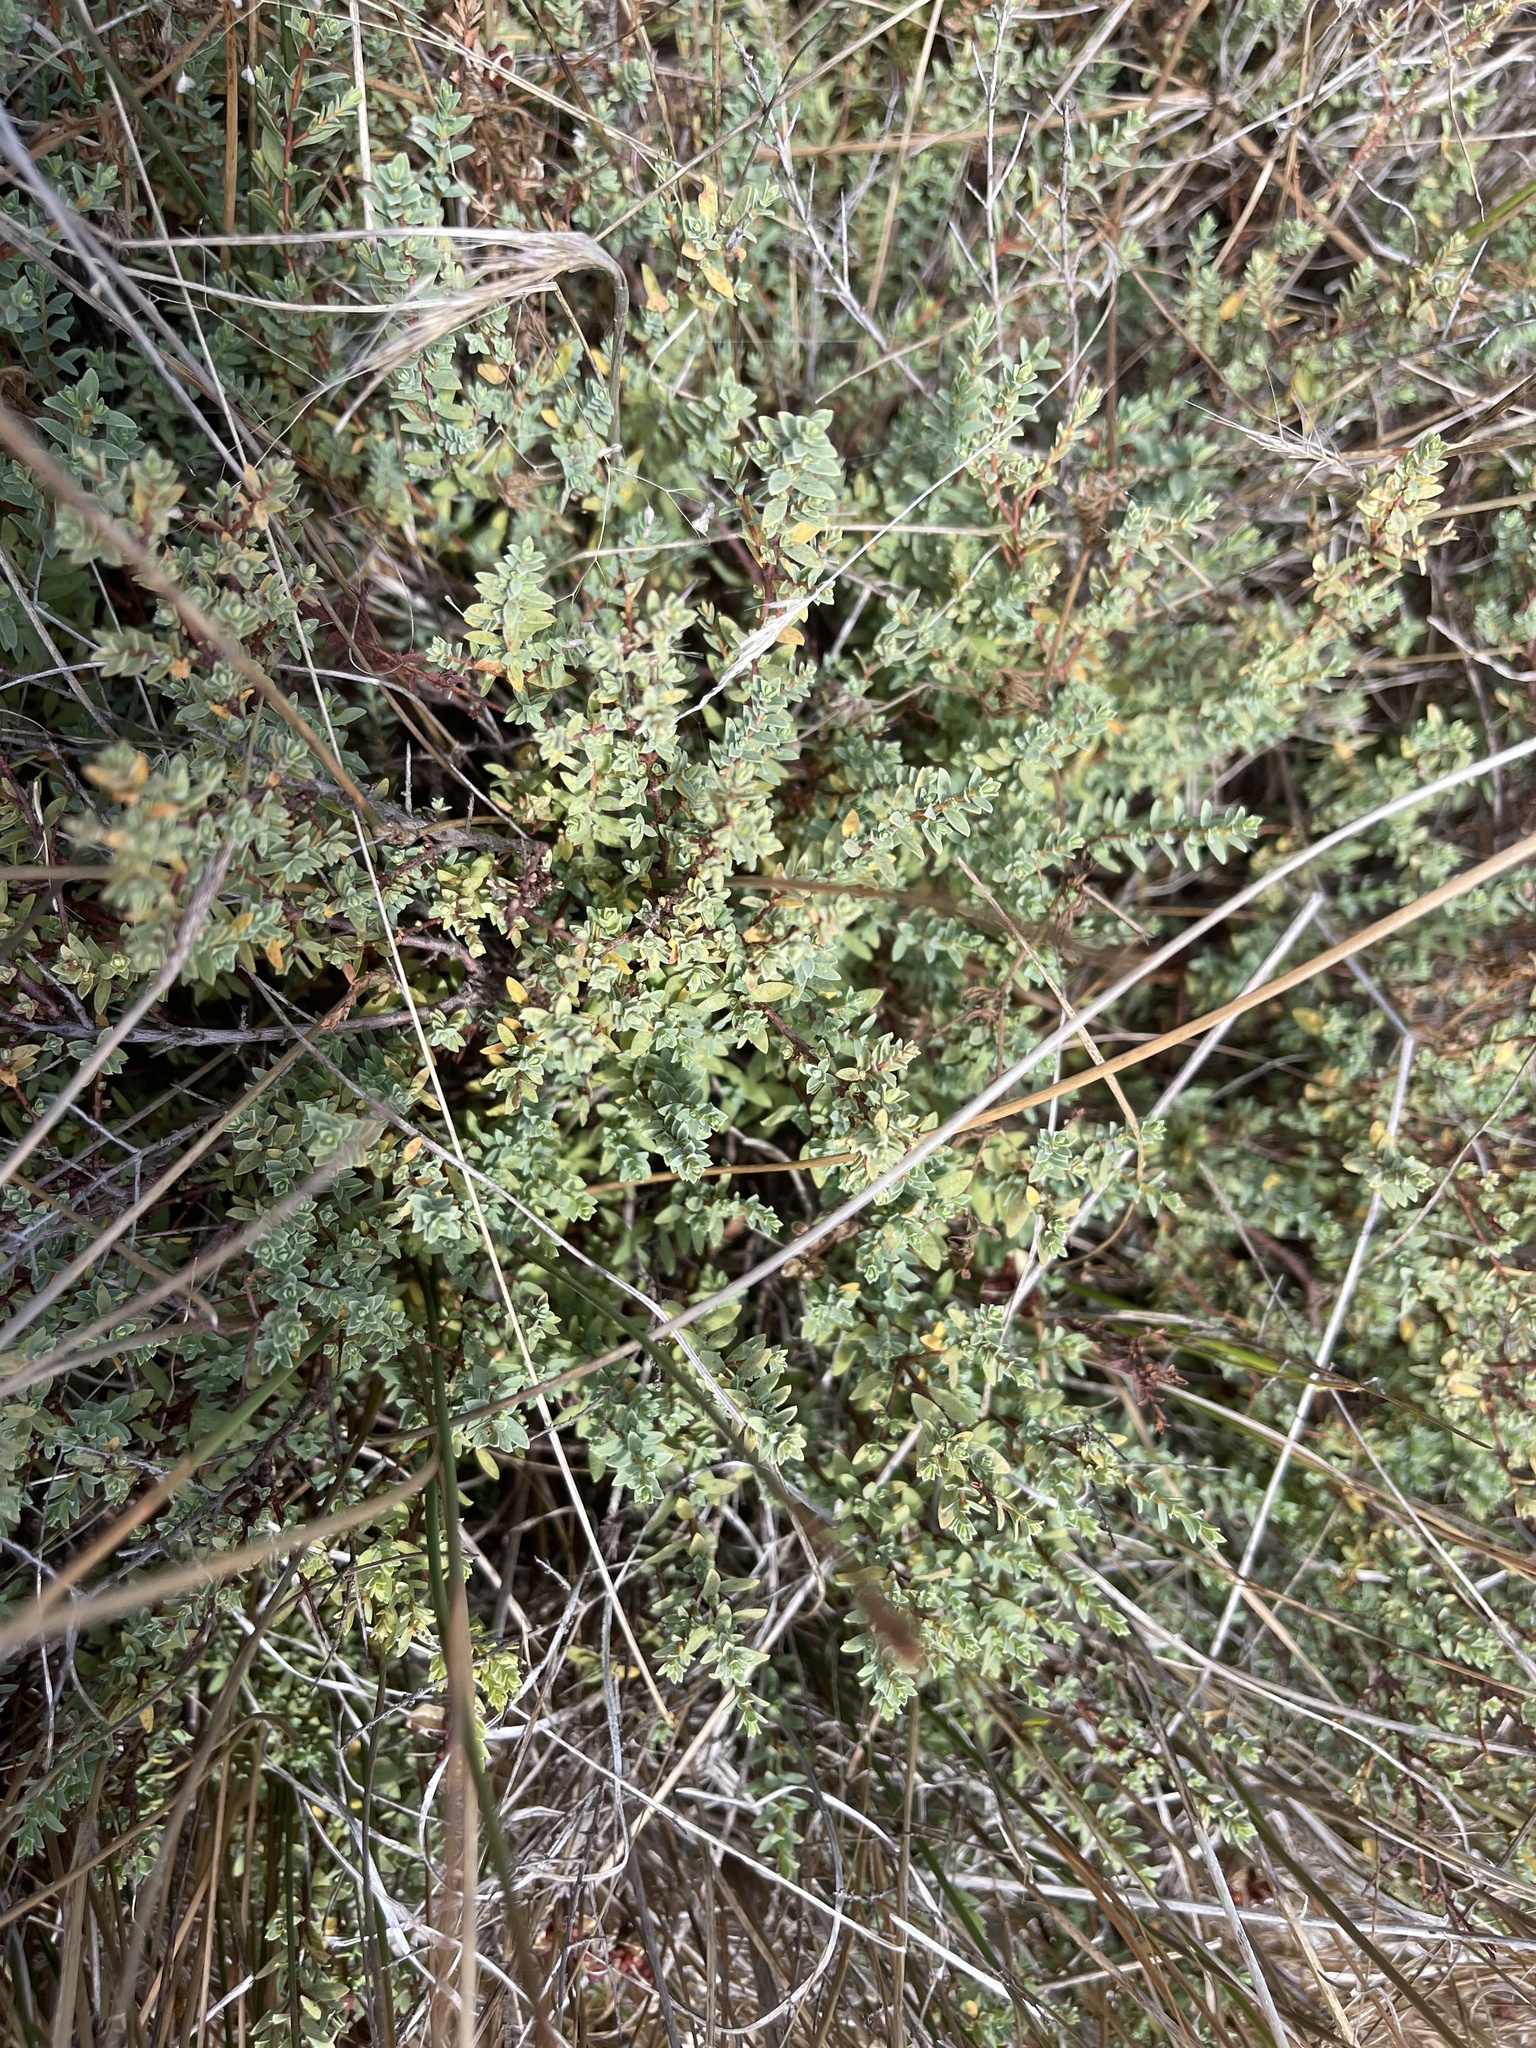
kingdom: Plantae
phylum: Tracheophyta
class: Magnoliopsida
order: Malvales
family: Thymelaeaceae
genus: Pimelea
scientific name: Pimelea spinescens
